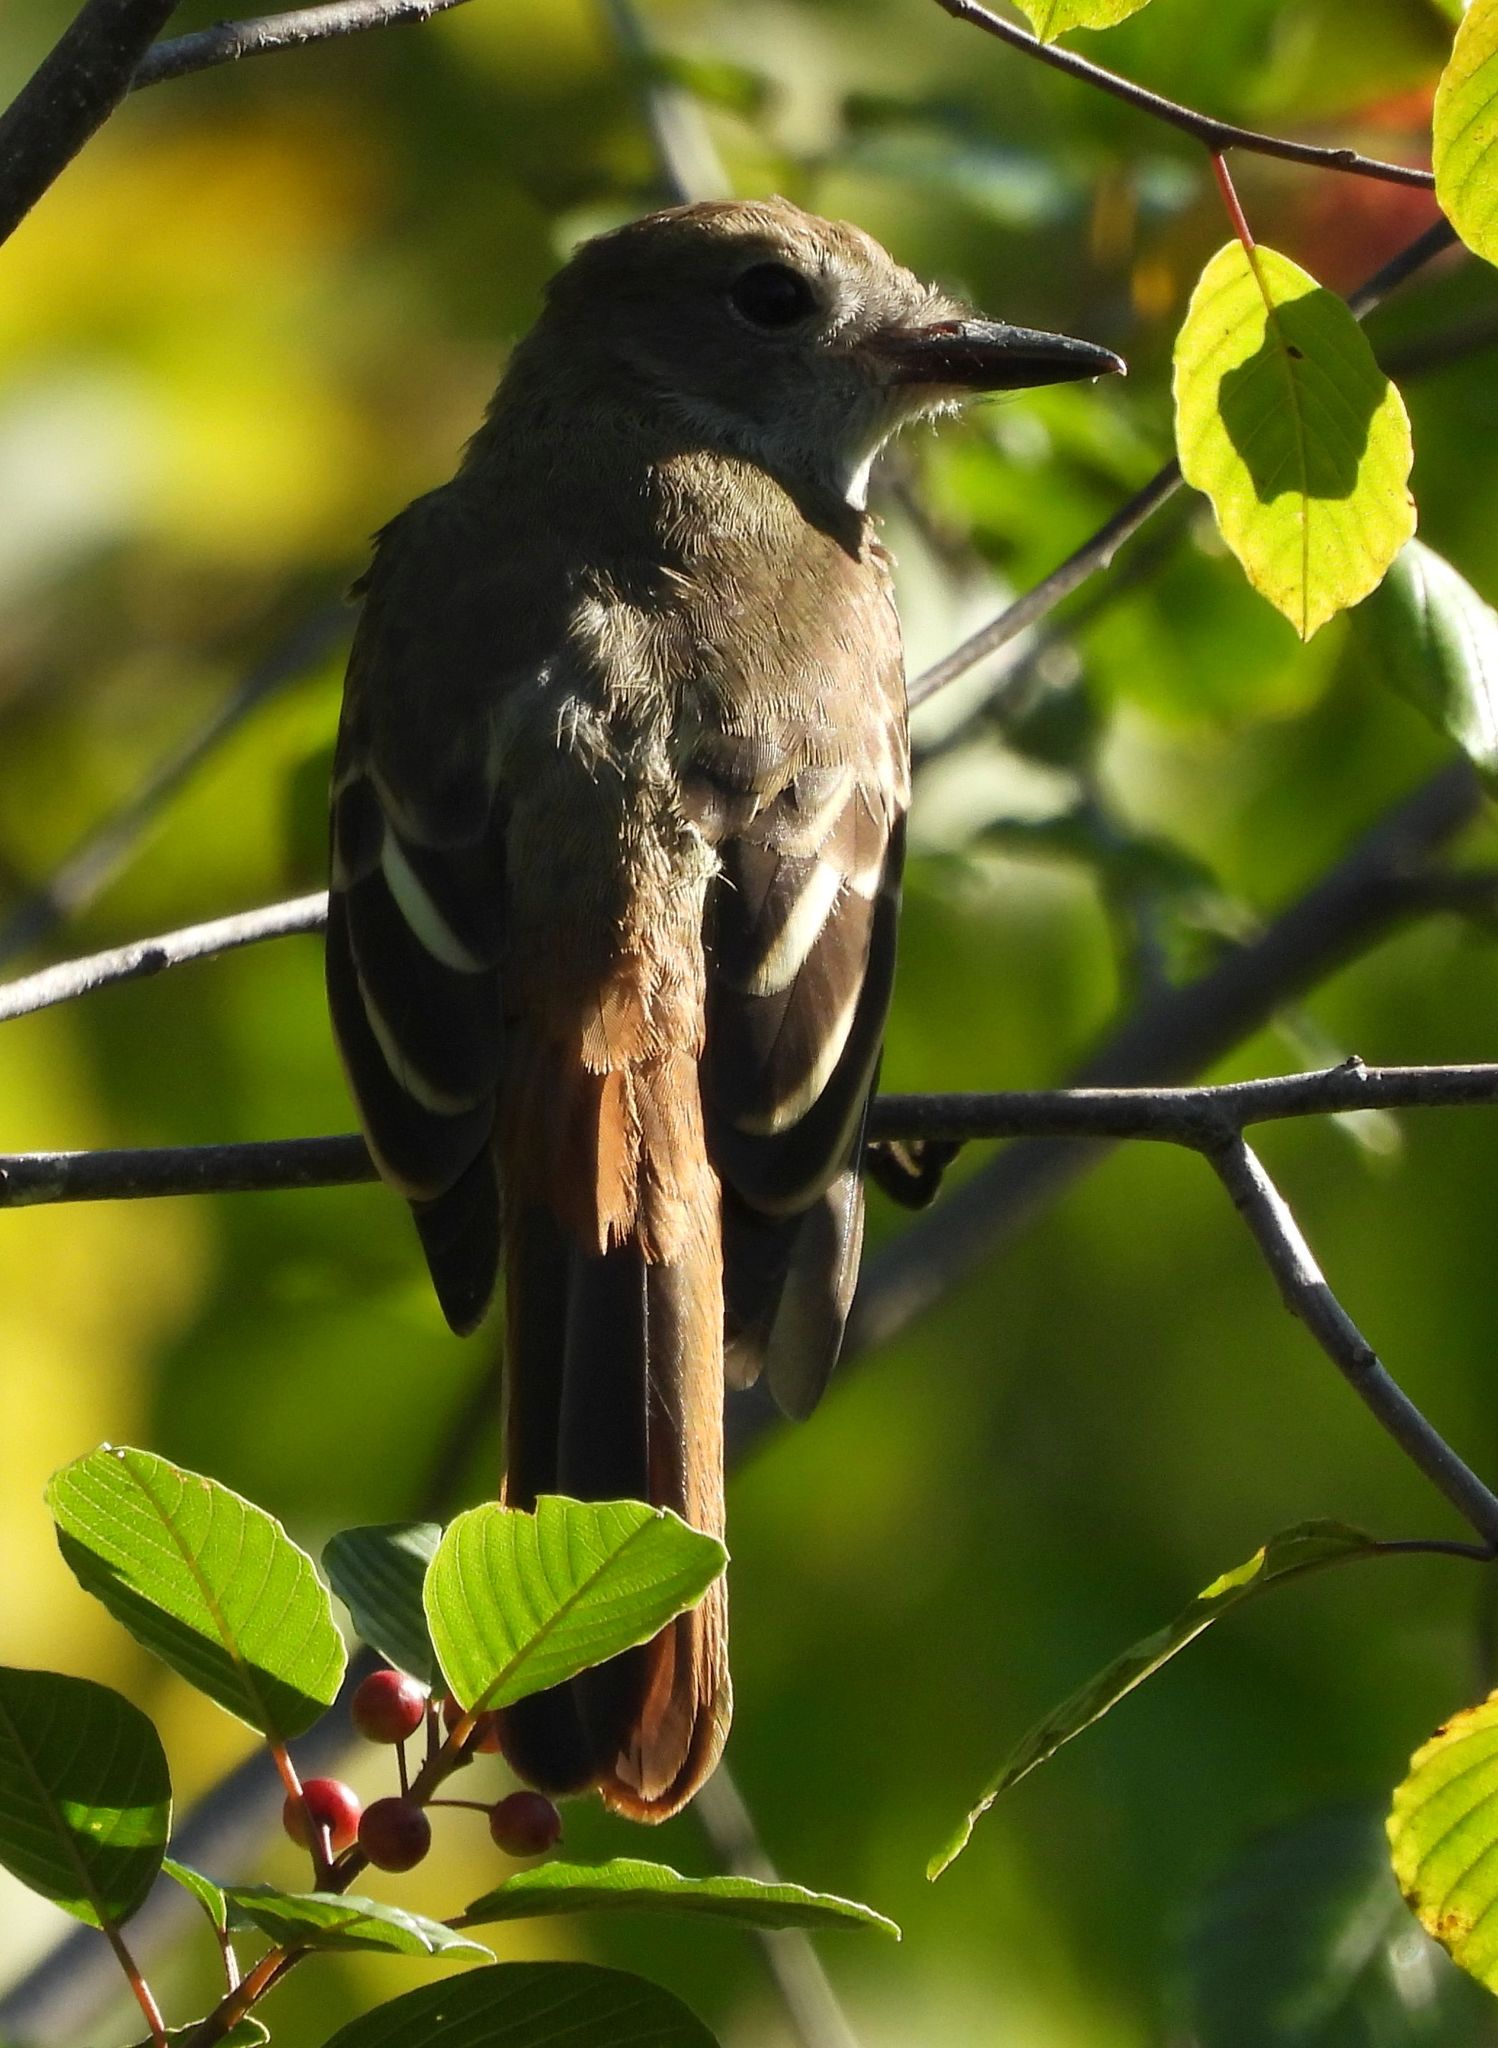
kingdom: Animalia
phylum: Chordata
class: Aves
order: Passeriformes
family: Tyrannidae
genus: Myiarchus
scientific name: Myiarchus crinitus
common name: Great crested flycatcher
